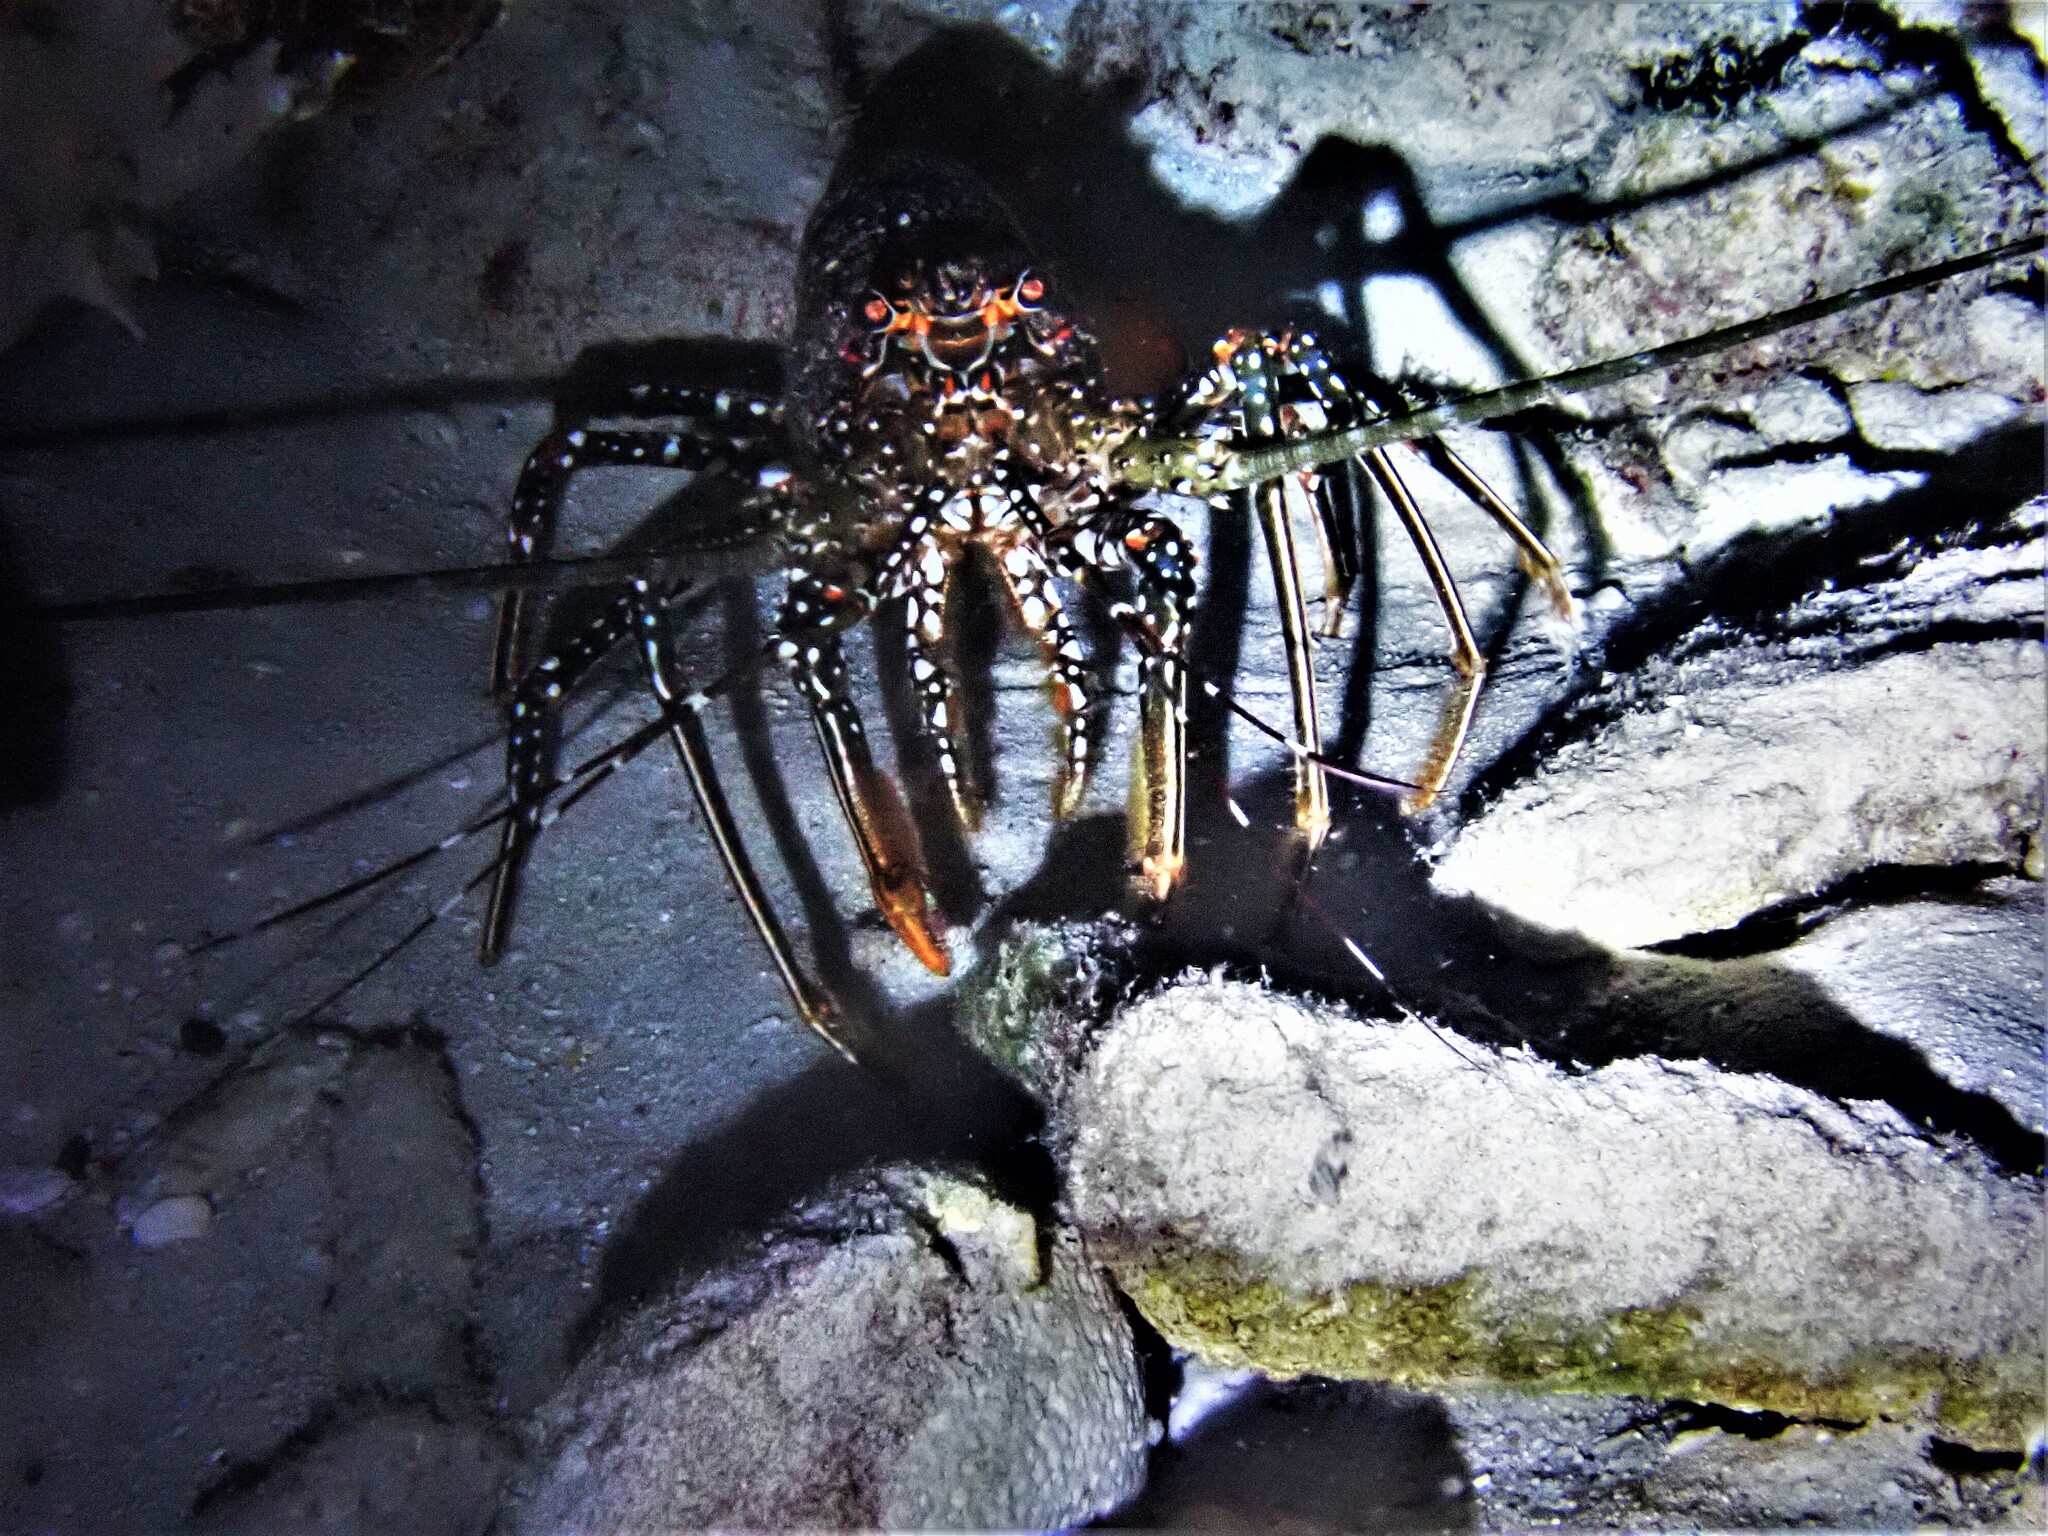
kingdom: Animalia
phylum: Arthropoda
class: Malacostraca
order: Decapoda
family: Palinuridae
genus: Panulirus
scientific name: Panulirus guttatus
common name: Spotted spiny lobster
